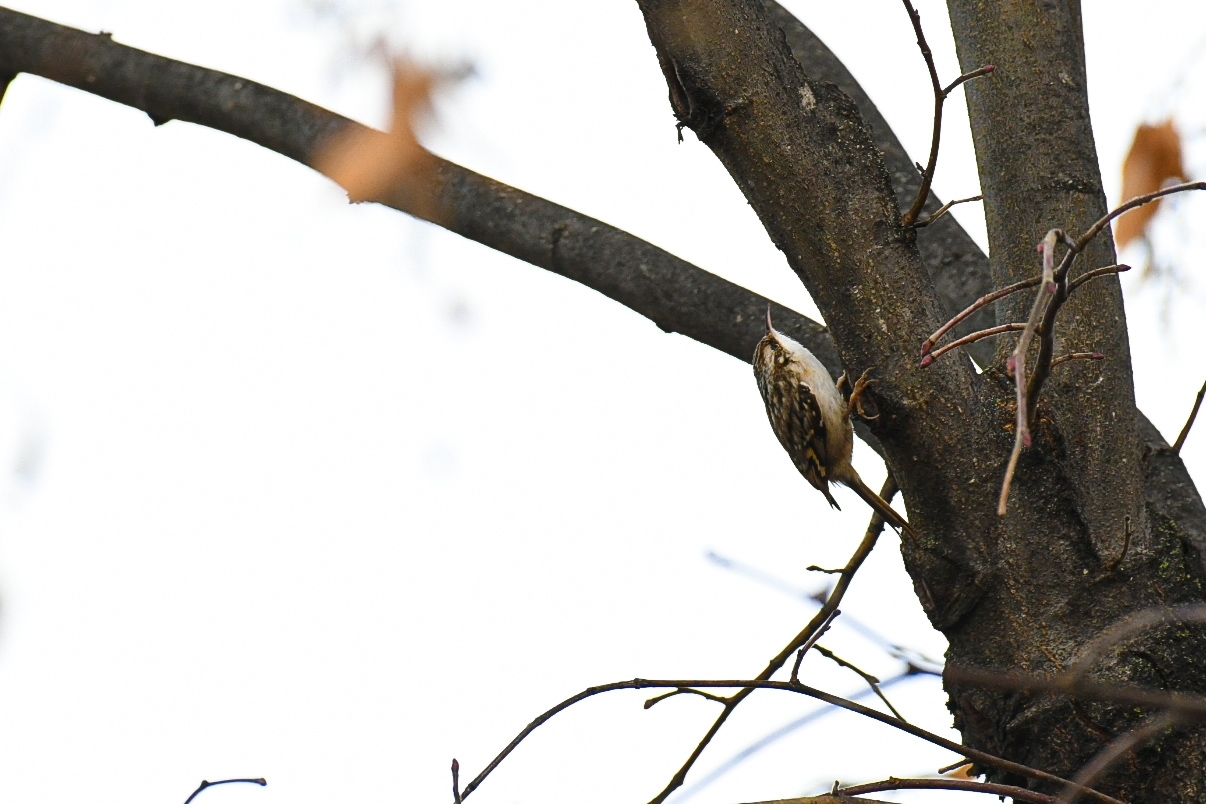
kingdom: Animalia
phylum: Chordata
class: Aves
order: Passeriformes
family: Certhiidae
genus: Certhia
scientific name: Certhia brachydactyla
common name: Short-toed treecreeper
